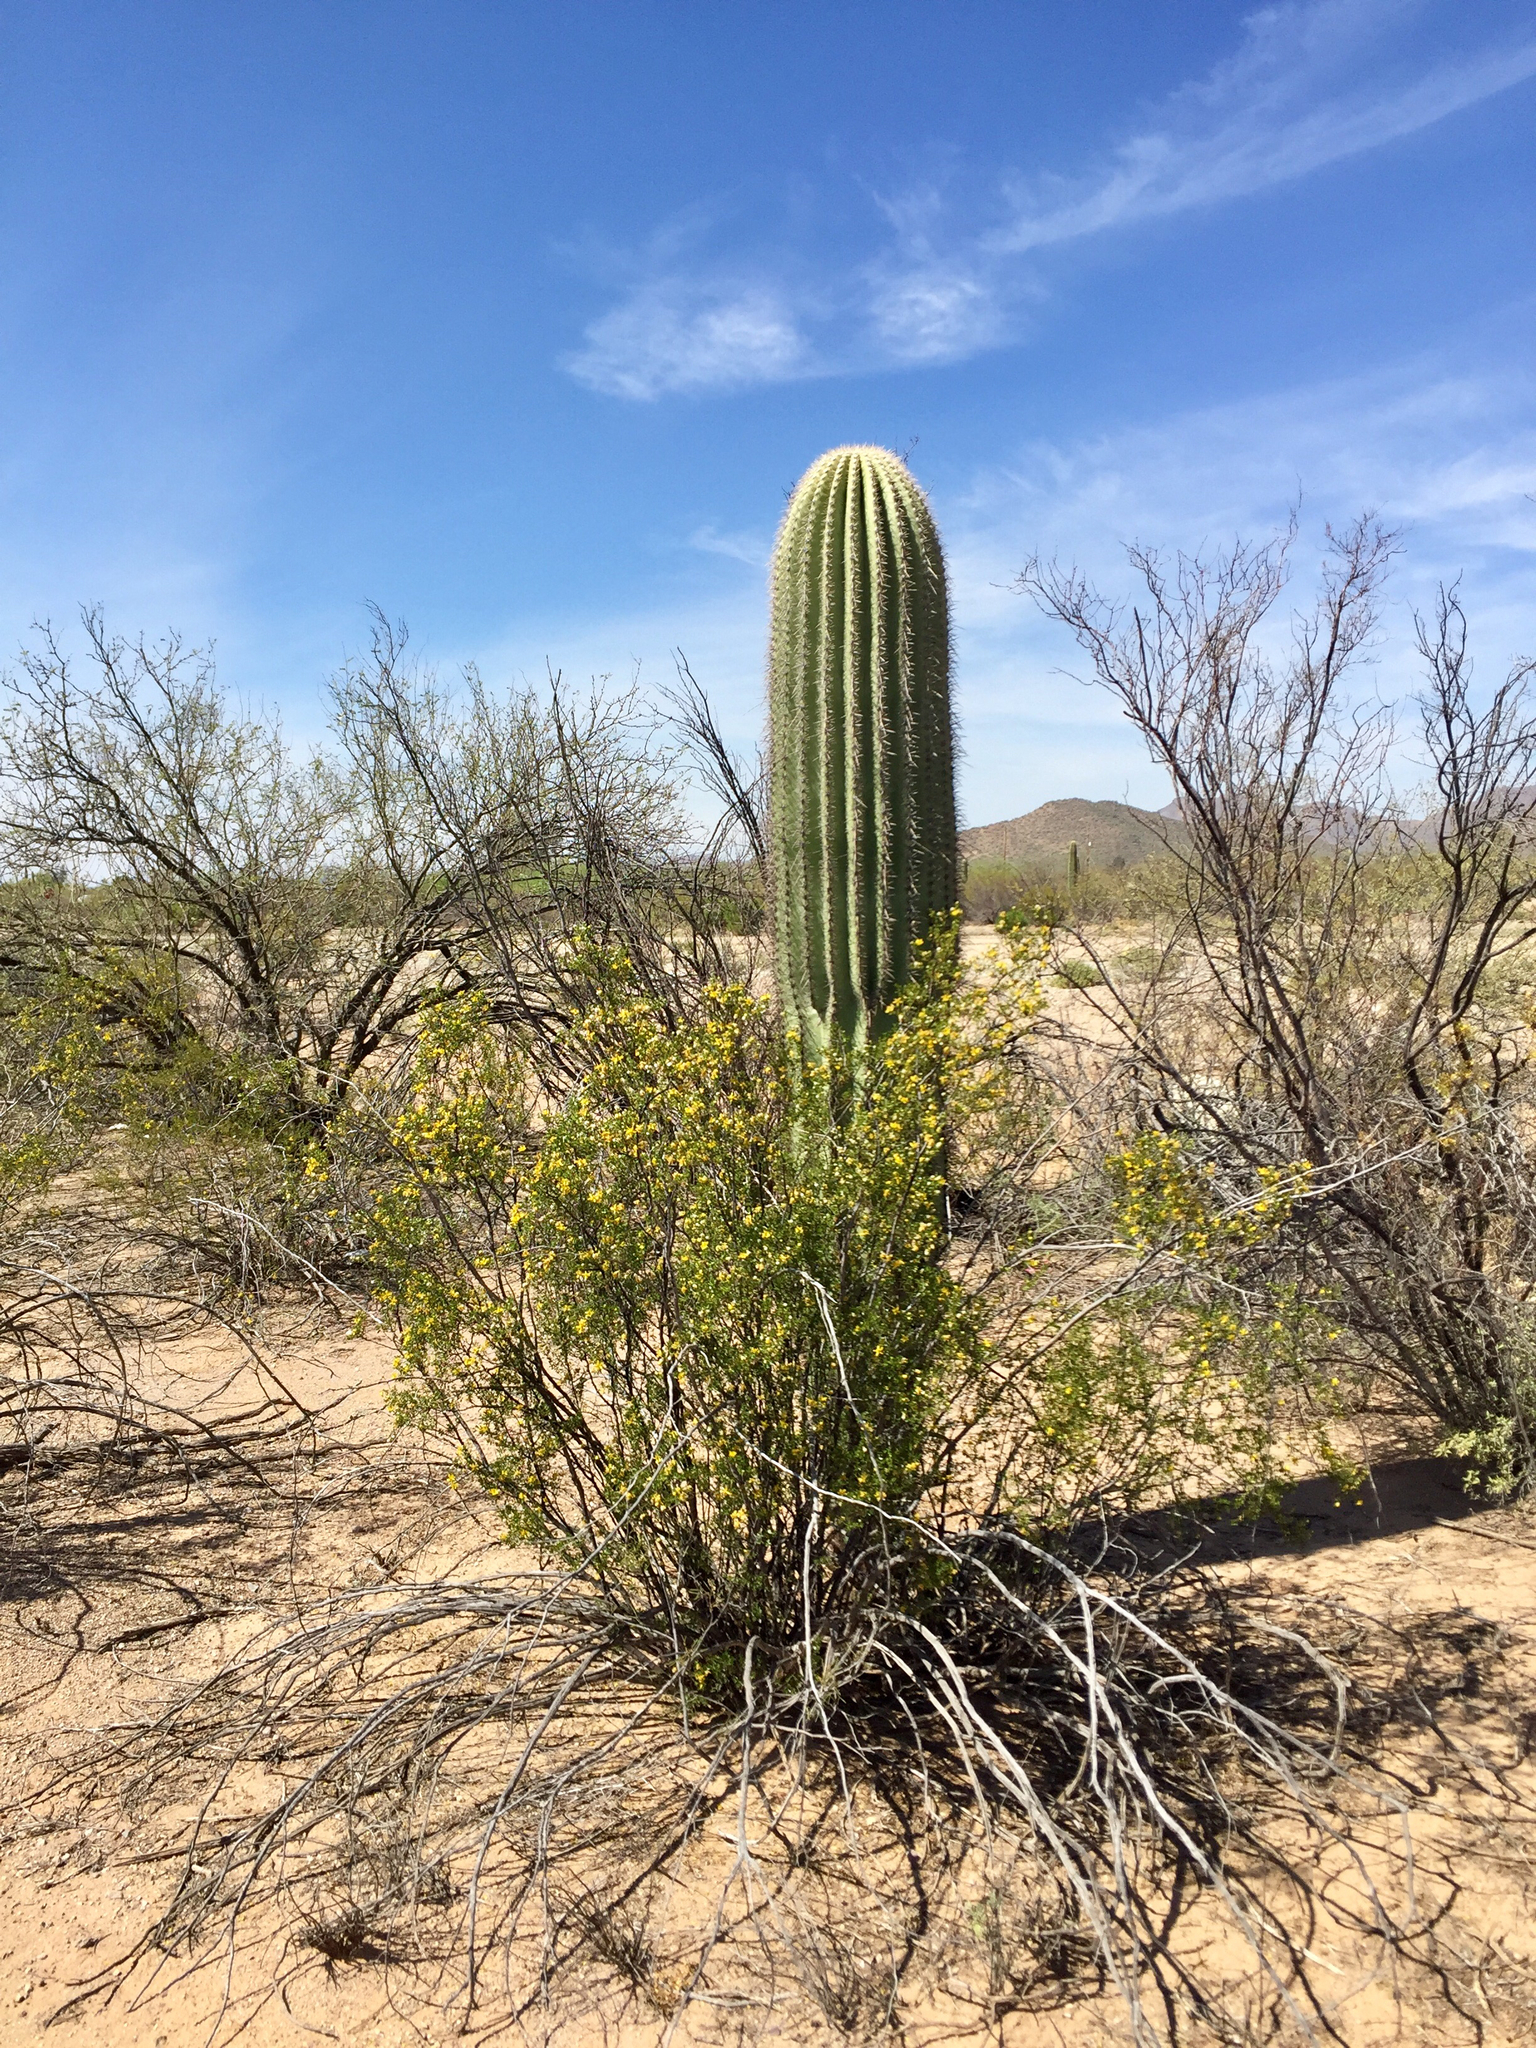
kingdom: Plantae
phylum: Tracheophyta
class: Magnoliopsida
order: Zygophyllales
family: Zygophyllaceae
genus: Larrea
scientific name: Larrea tridentata
